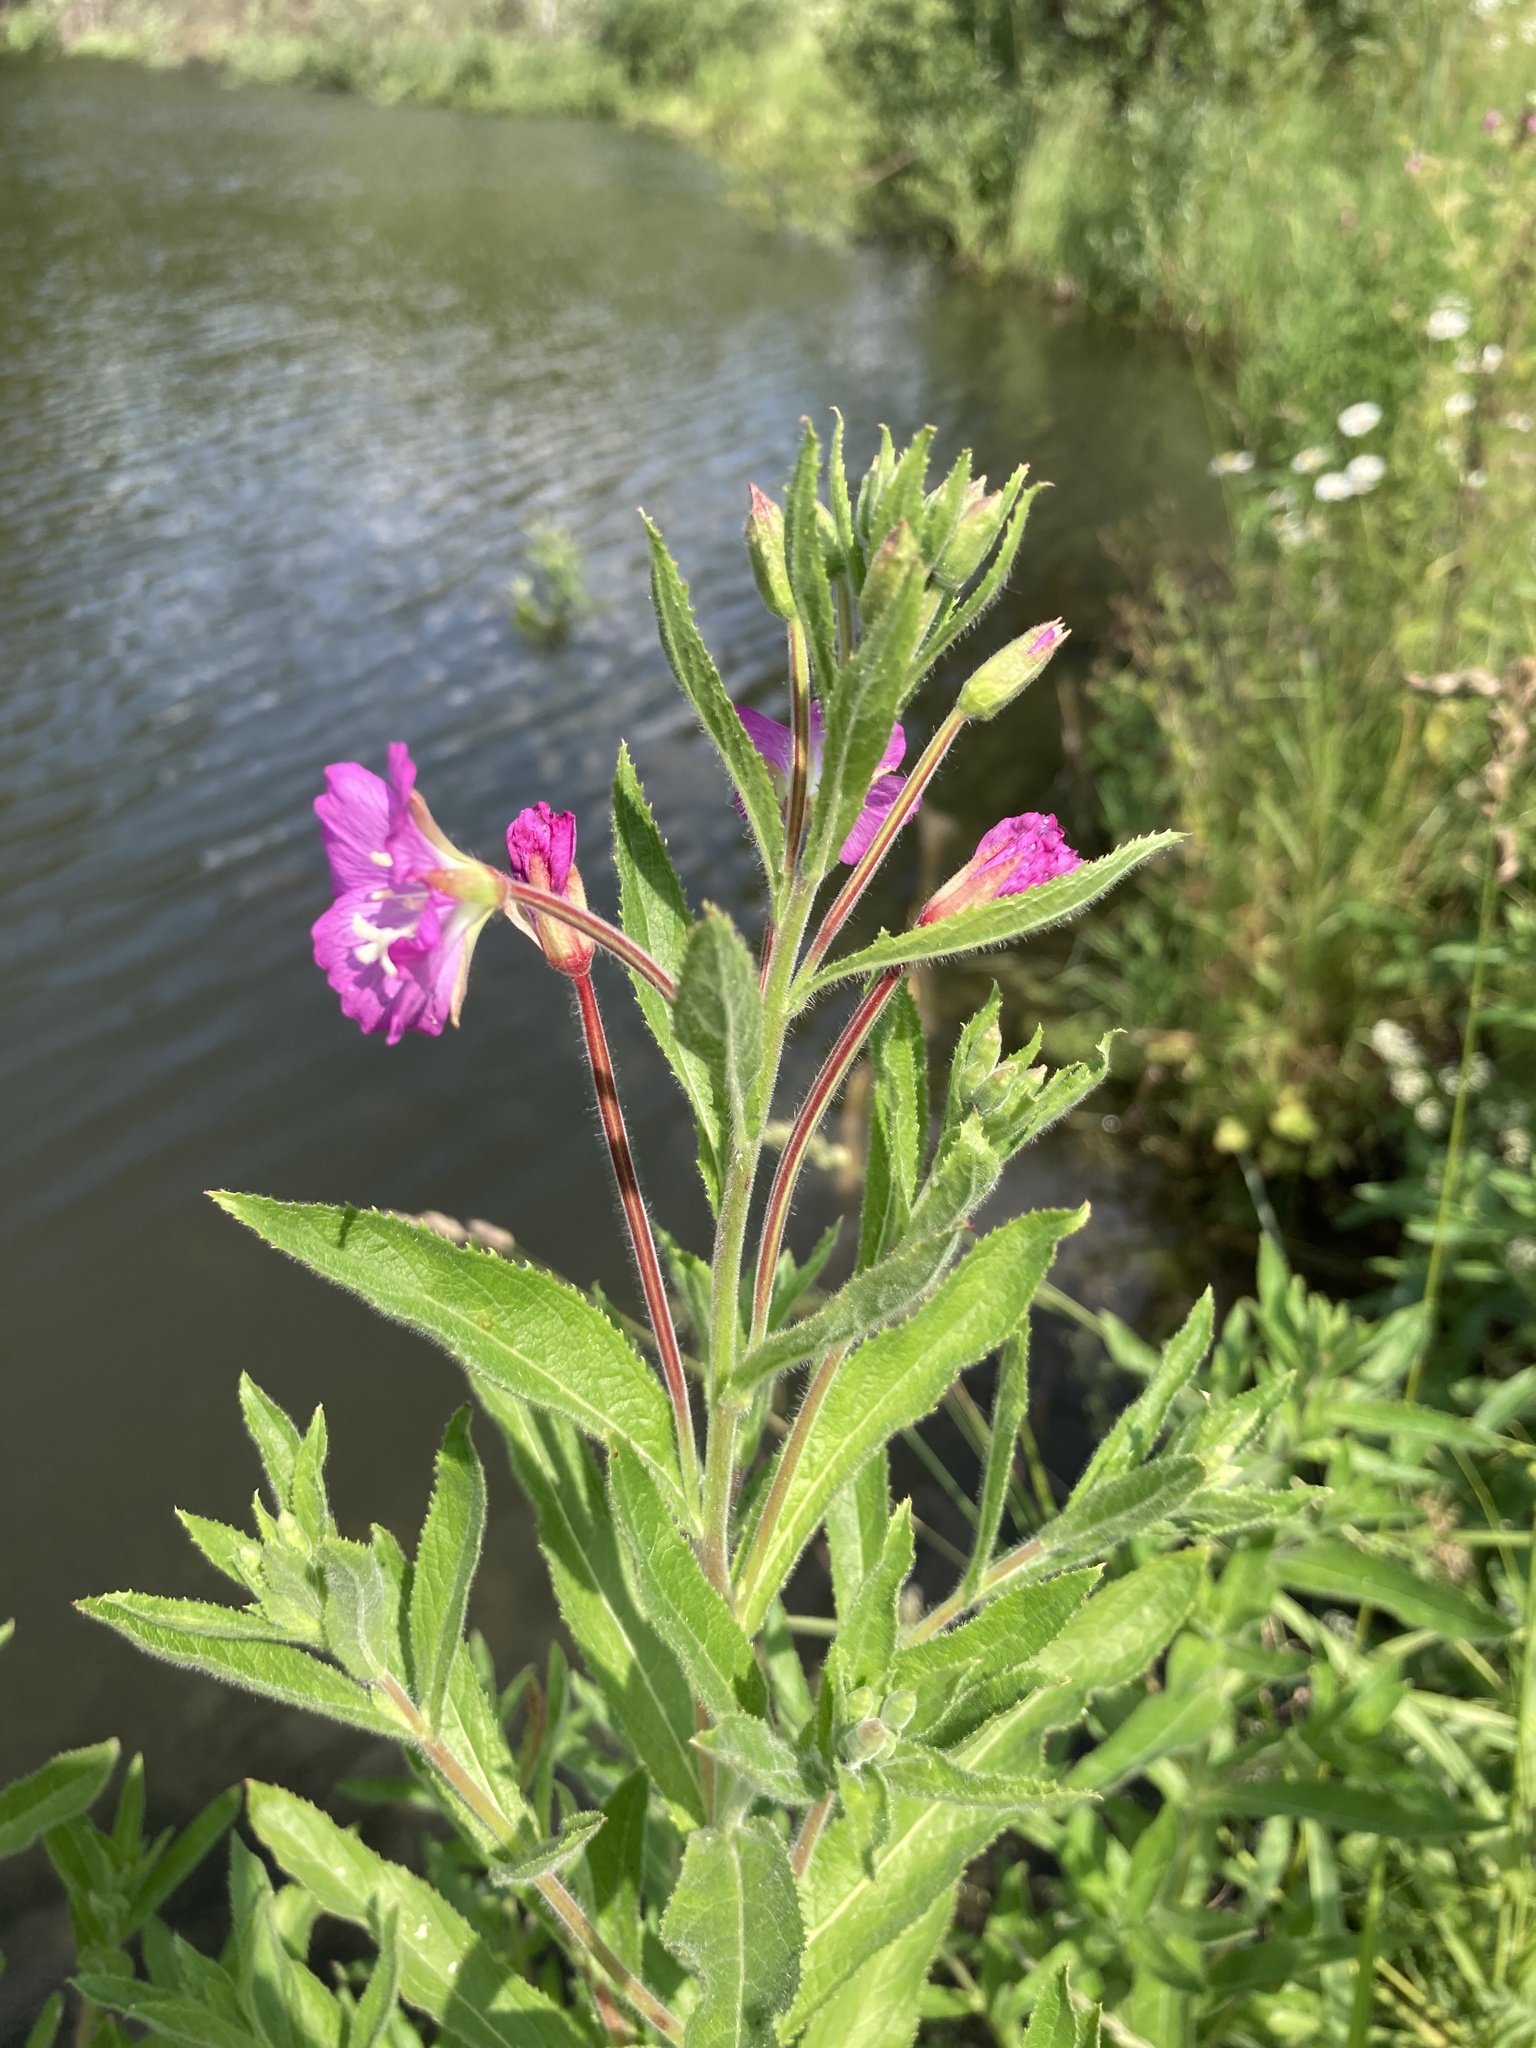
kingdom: Plantae
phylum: Tracheophyta
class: Magnoliopsida
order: Myrtales
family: Onagraceae
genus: Epilobium
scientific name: Epilobium hirsutum
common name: Great willowherb
